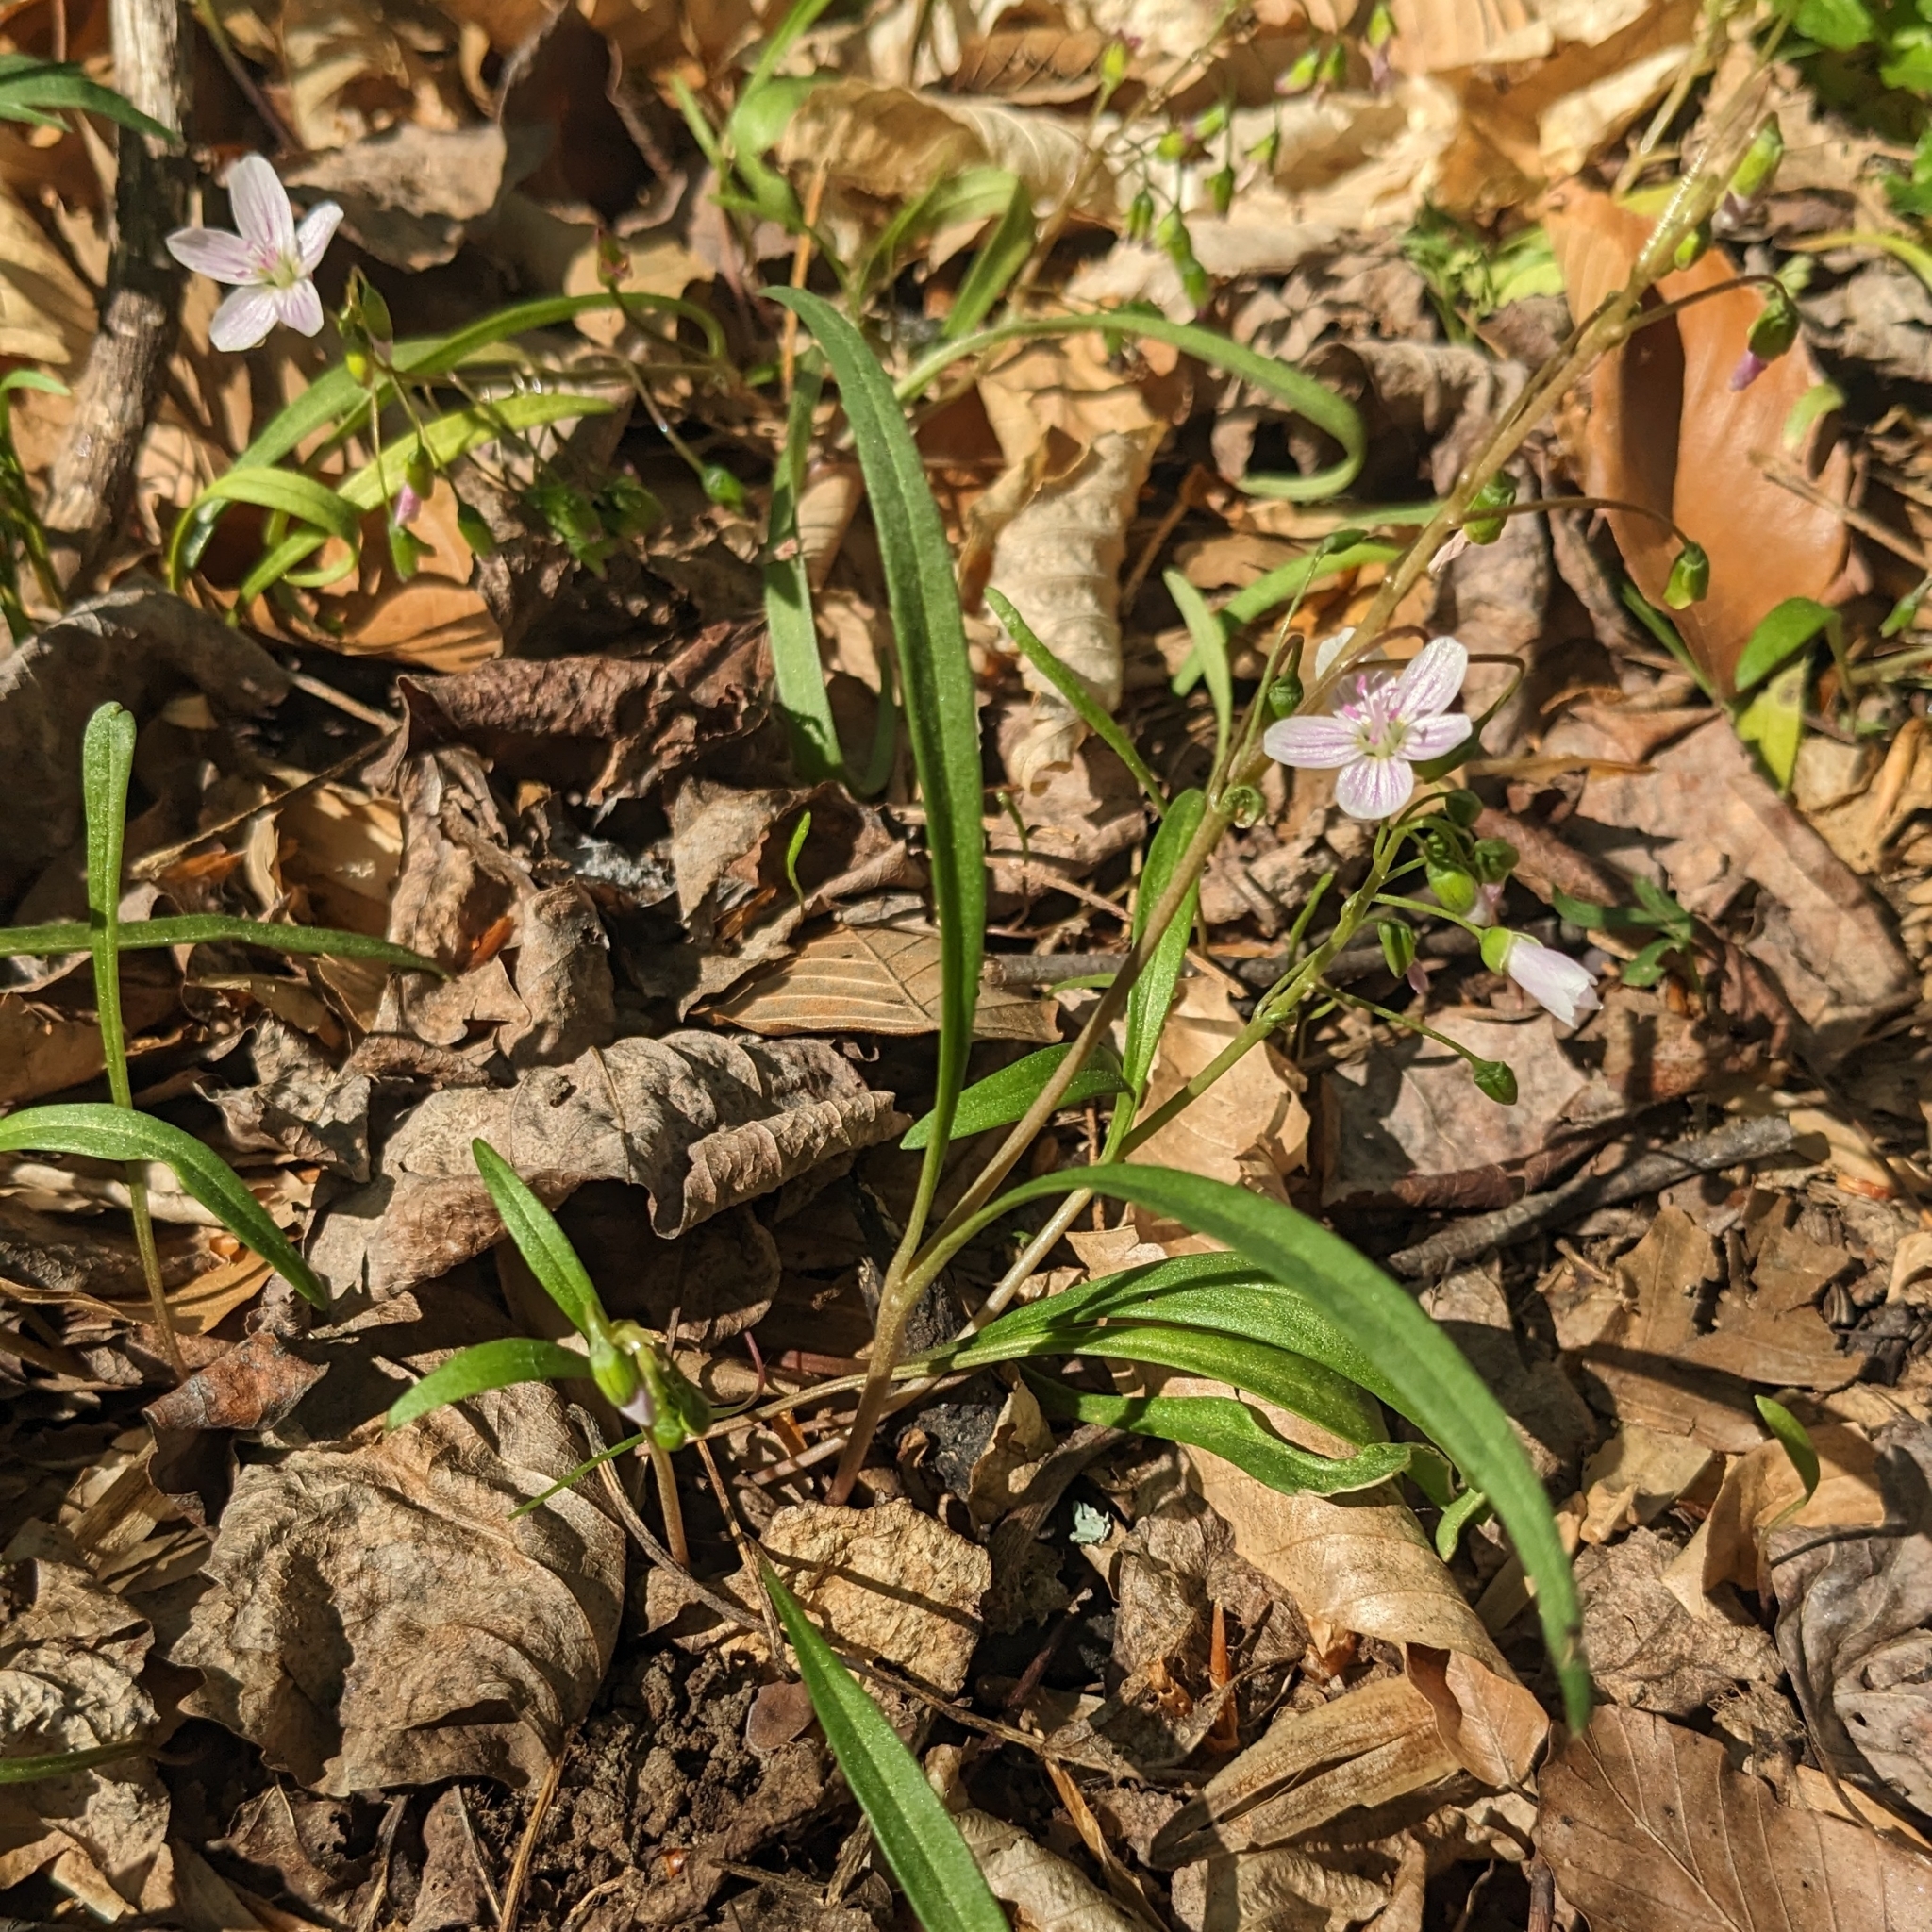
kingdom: Plantae
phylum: Tracheophyta
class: Magnoliopsida
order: Caryophyllales
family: Montiaceae
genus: Claytonia
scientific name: Claytonia virginica
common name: Virginia springbeauty
